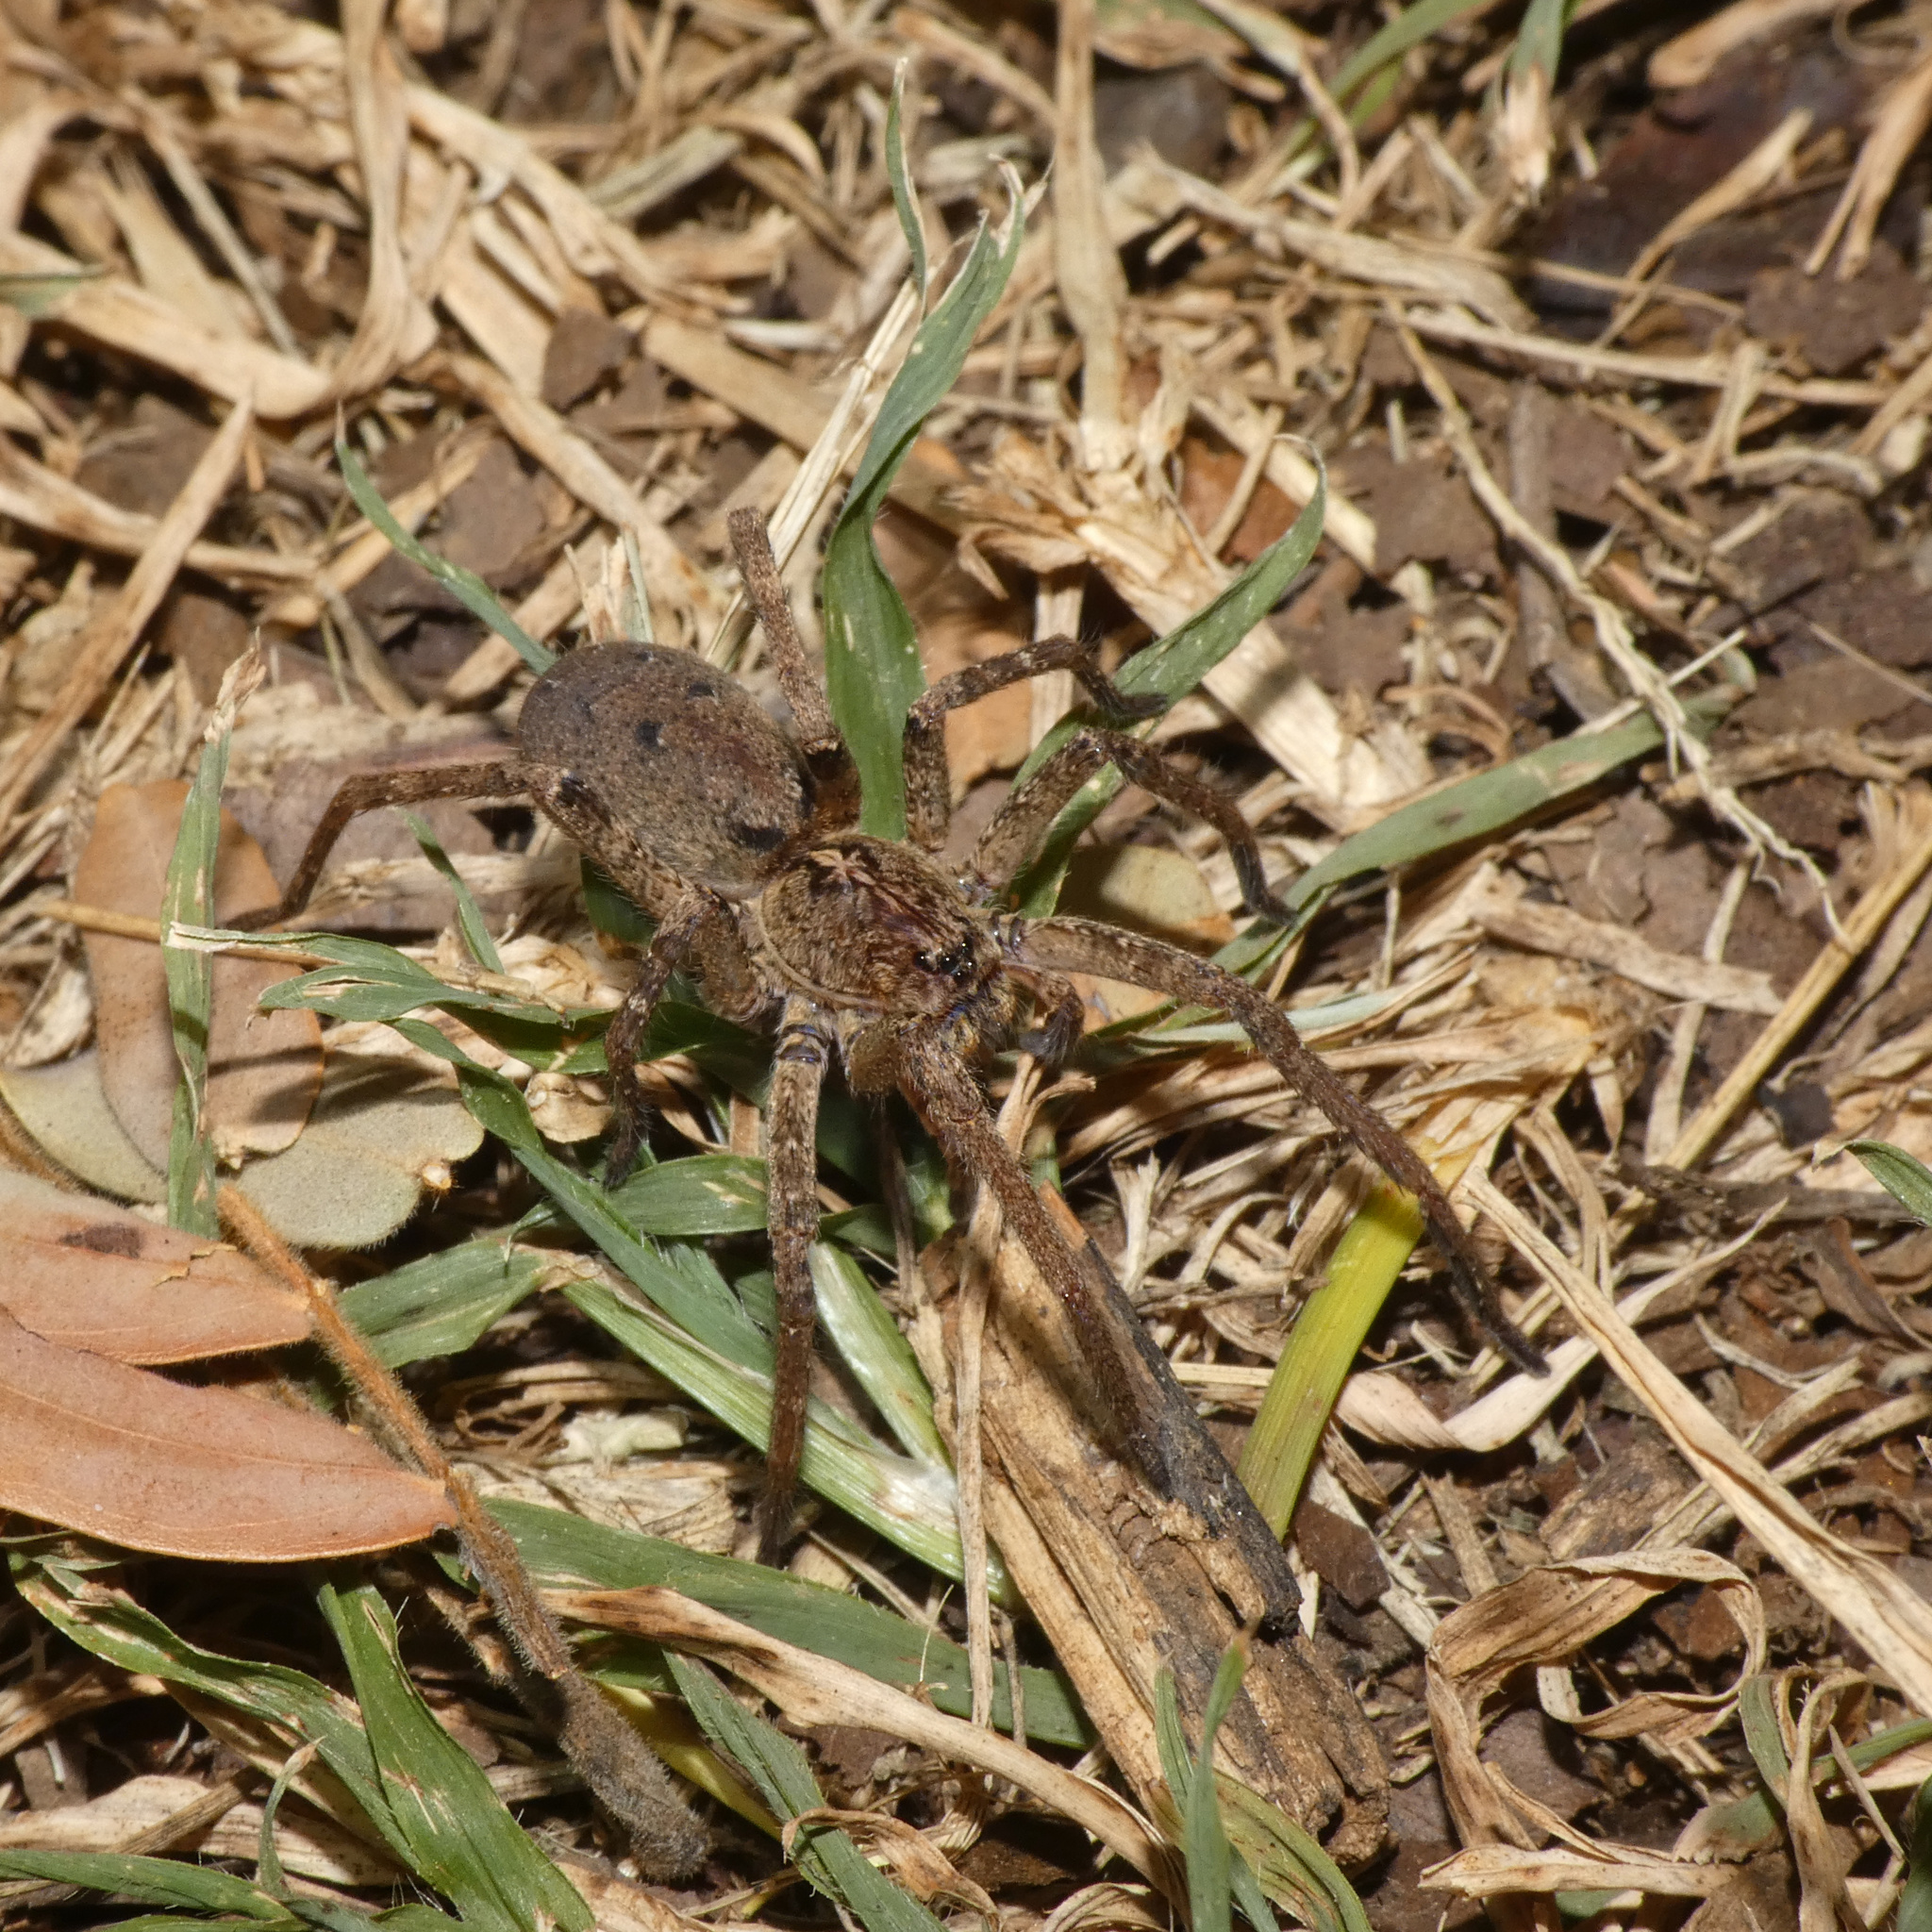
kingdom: Animalia
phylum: Arthropoda
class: Arachnida
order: Araneae
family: Ctenidae
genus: Afroneutria
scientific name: Afroneutria erythrochelis
